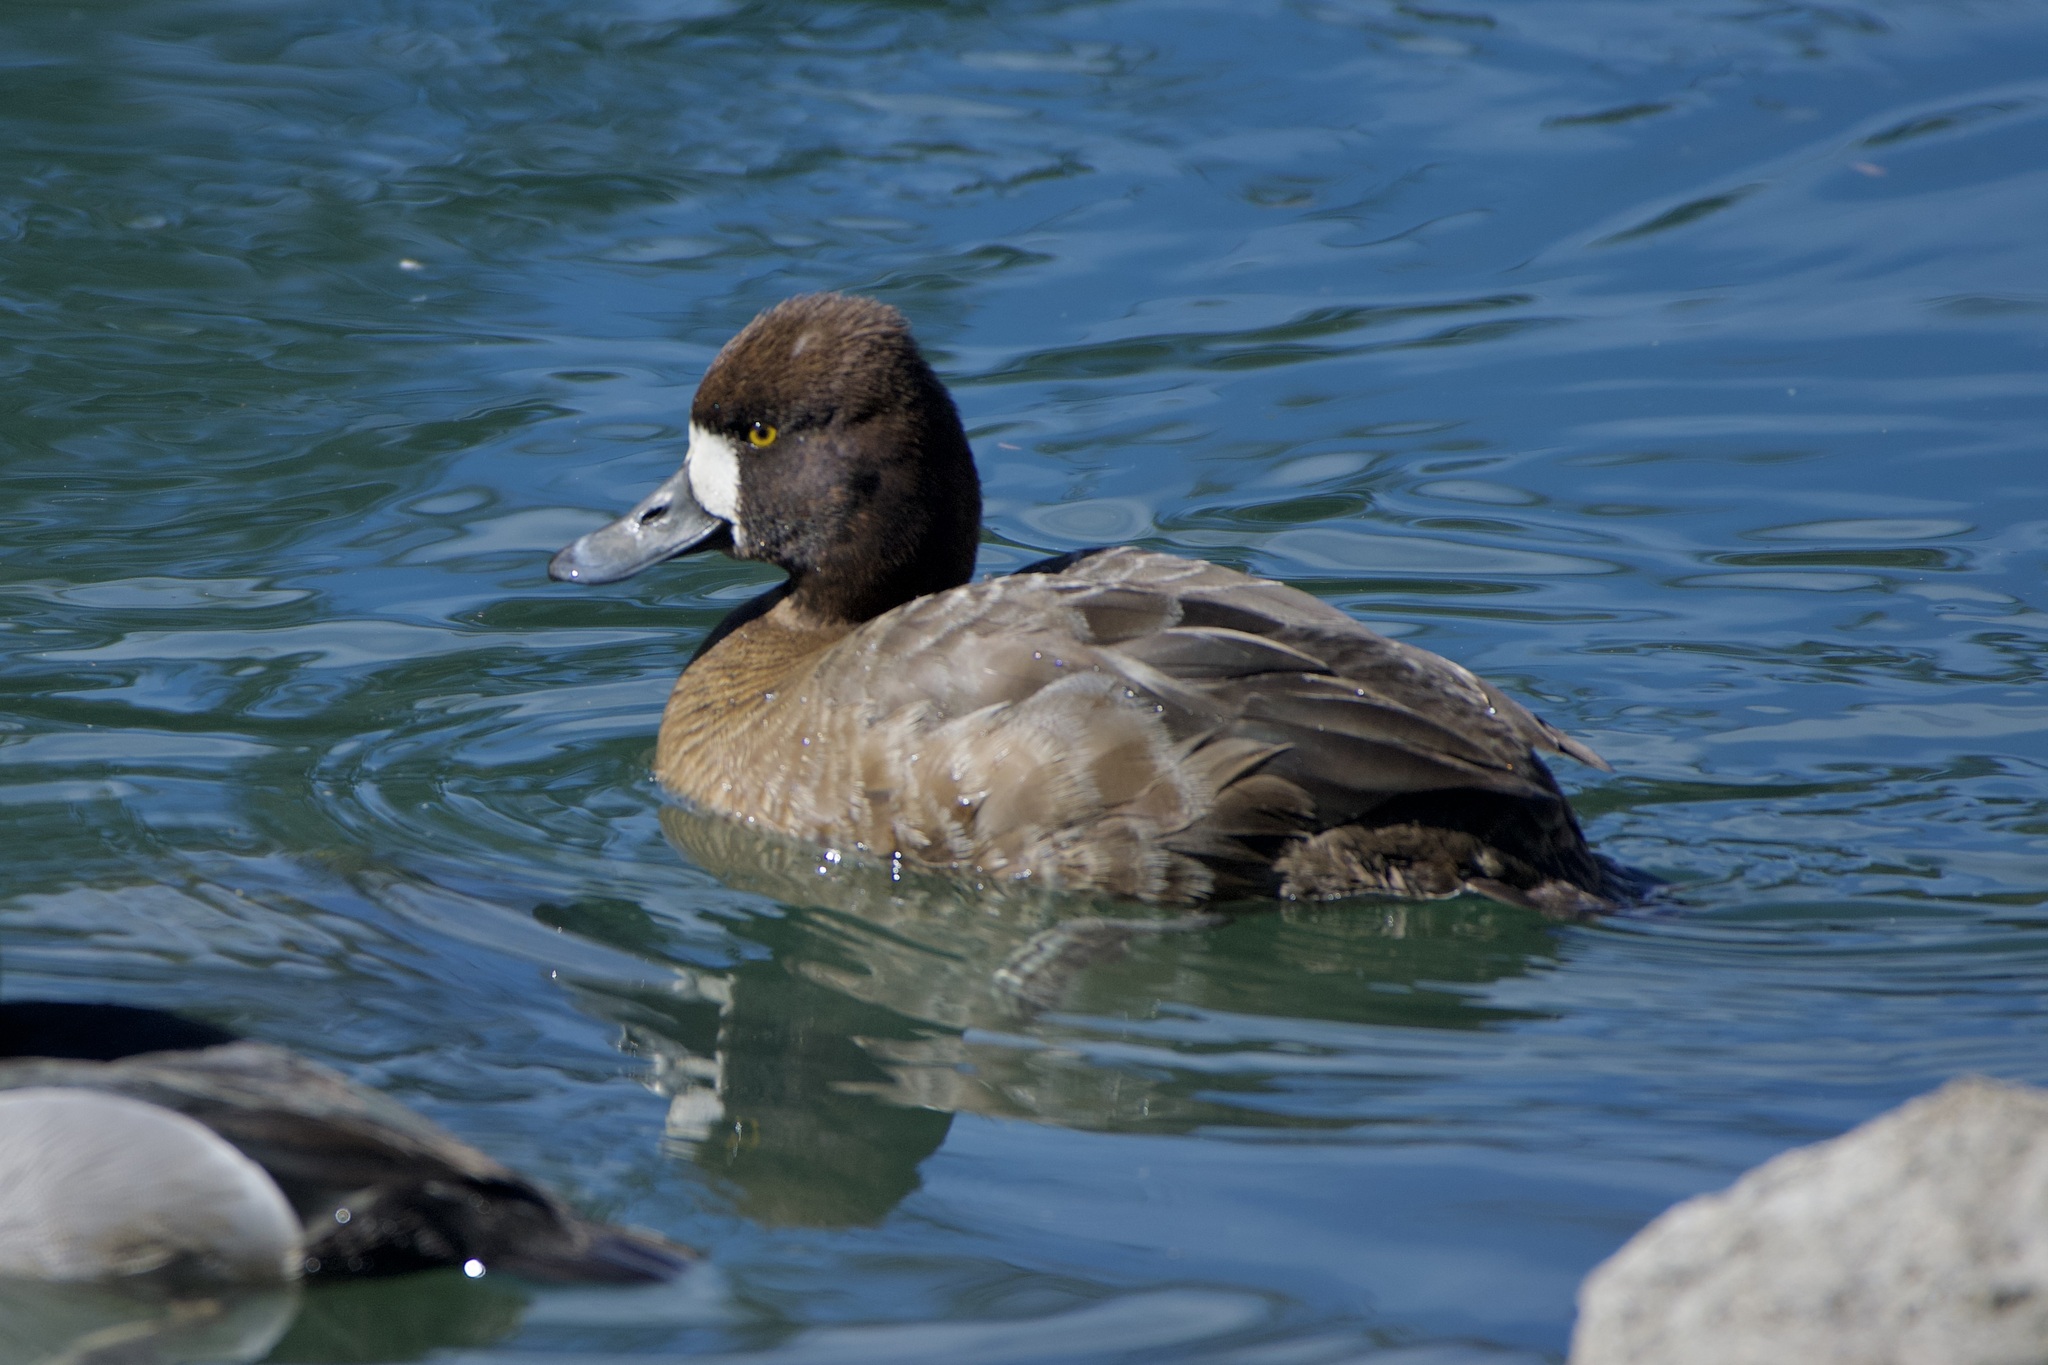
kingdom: Animalia
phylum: Chordata
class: Aves
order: Anseriformes
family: Anatidae
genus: Aythya
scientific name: Aythya affinis
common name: Lesser scaup
